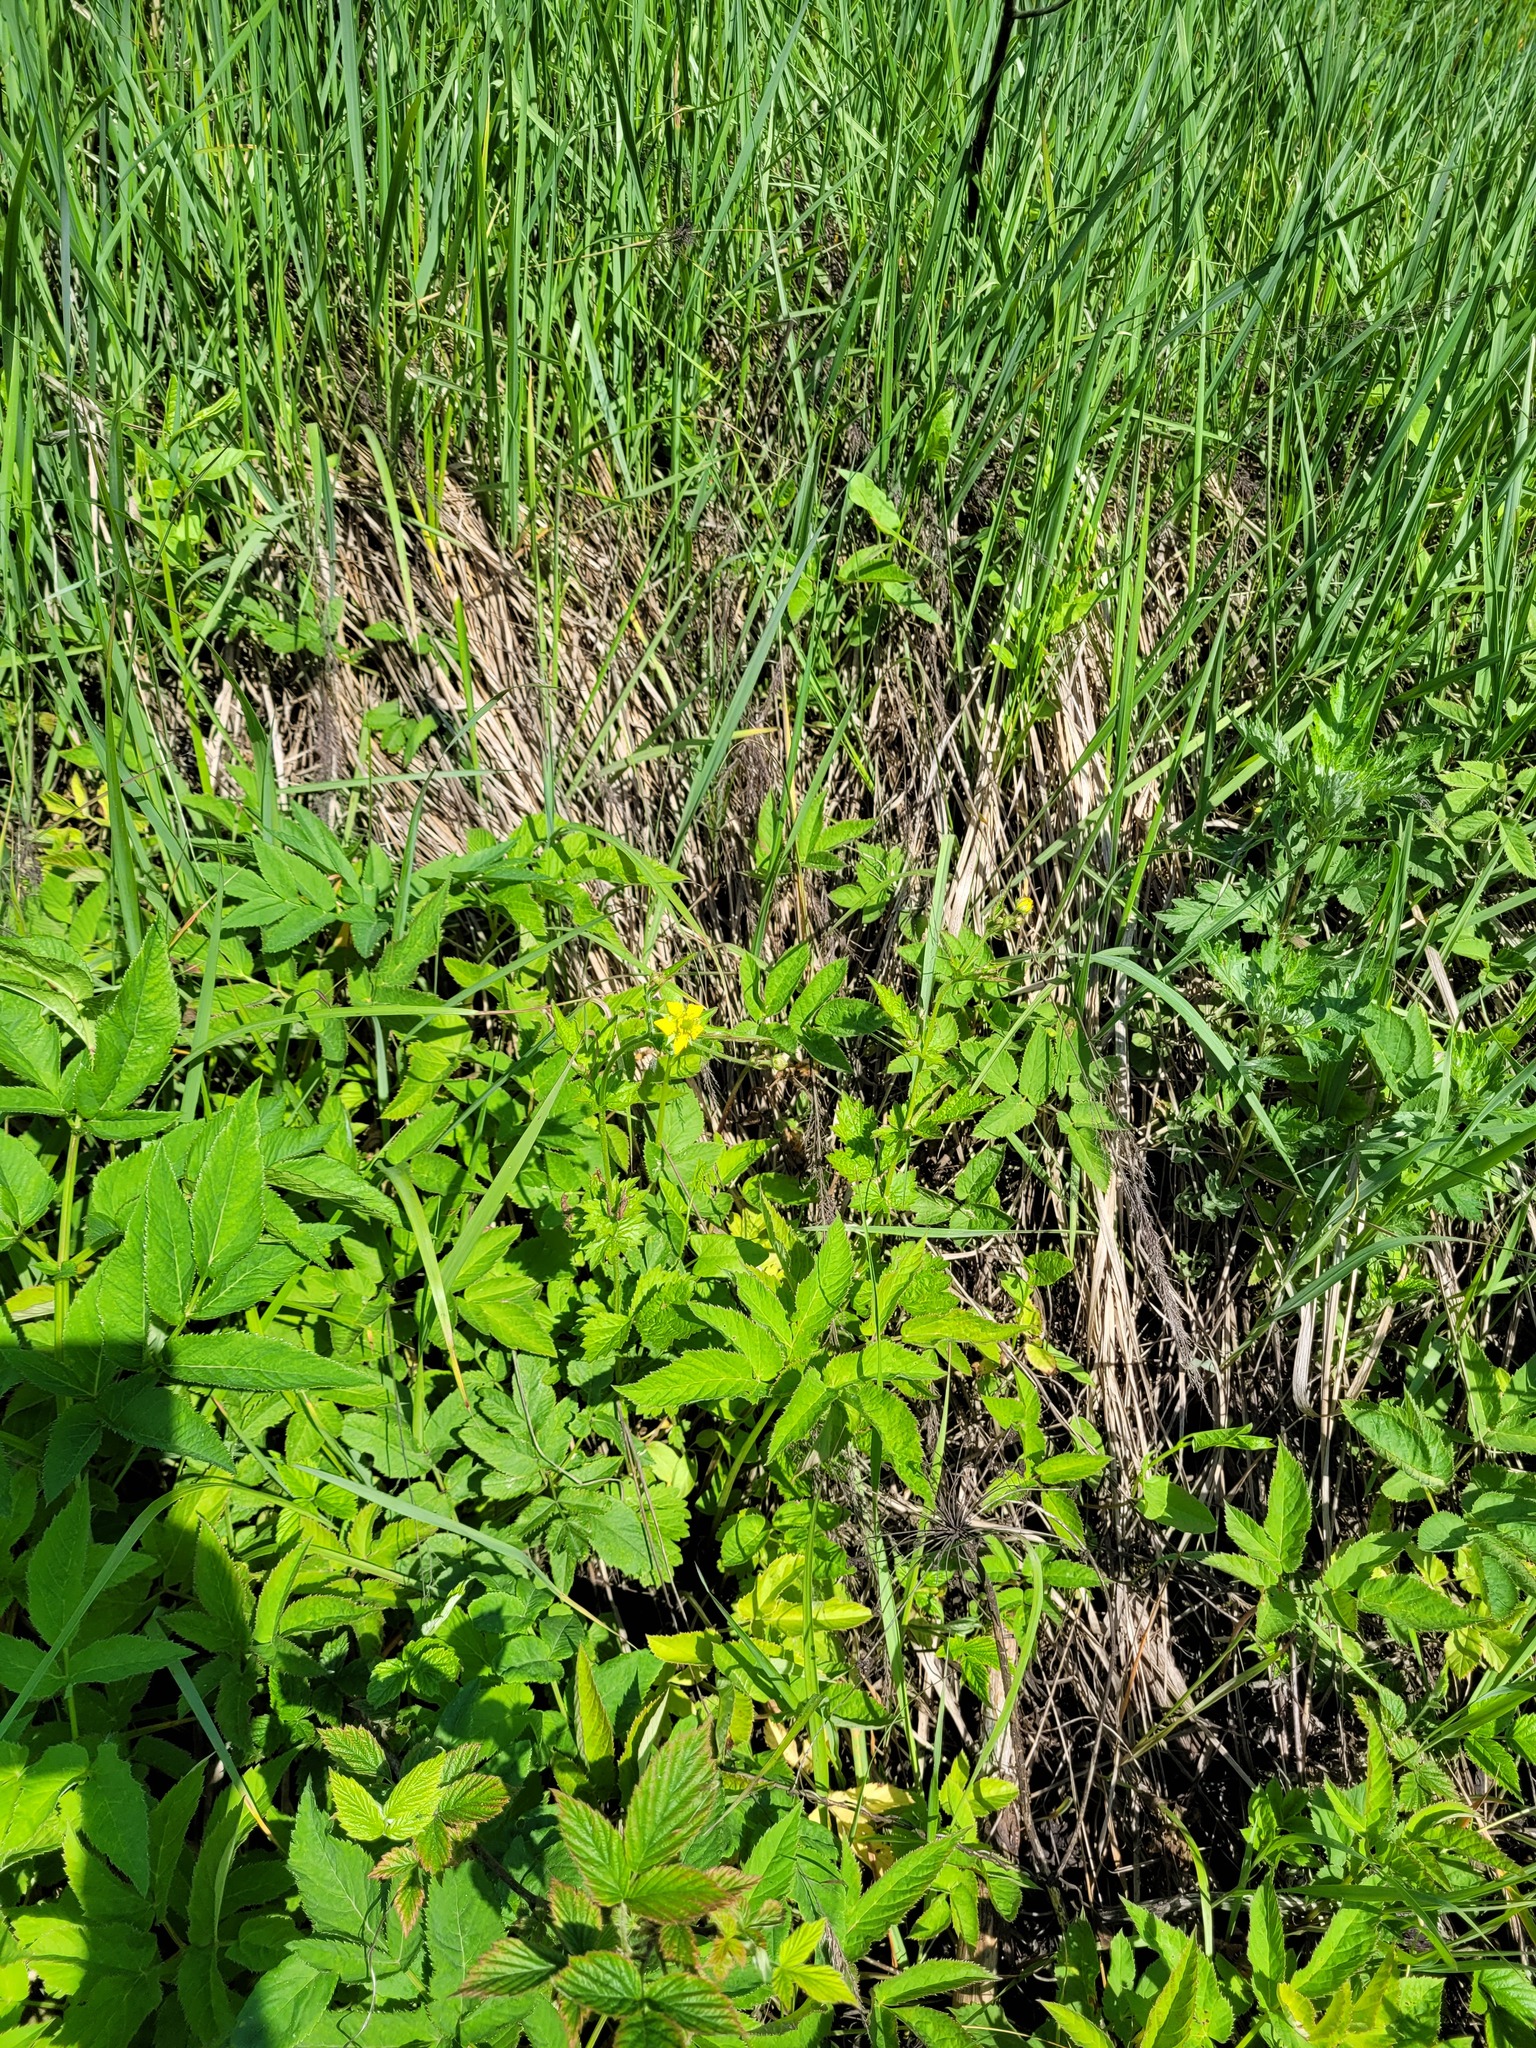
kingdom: Plantae
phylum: Tracheophyta
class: Magnoliopsida
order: Rosales
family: Rosaceae
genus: Geum
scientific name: Geum urbanum
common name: Wood avens
